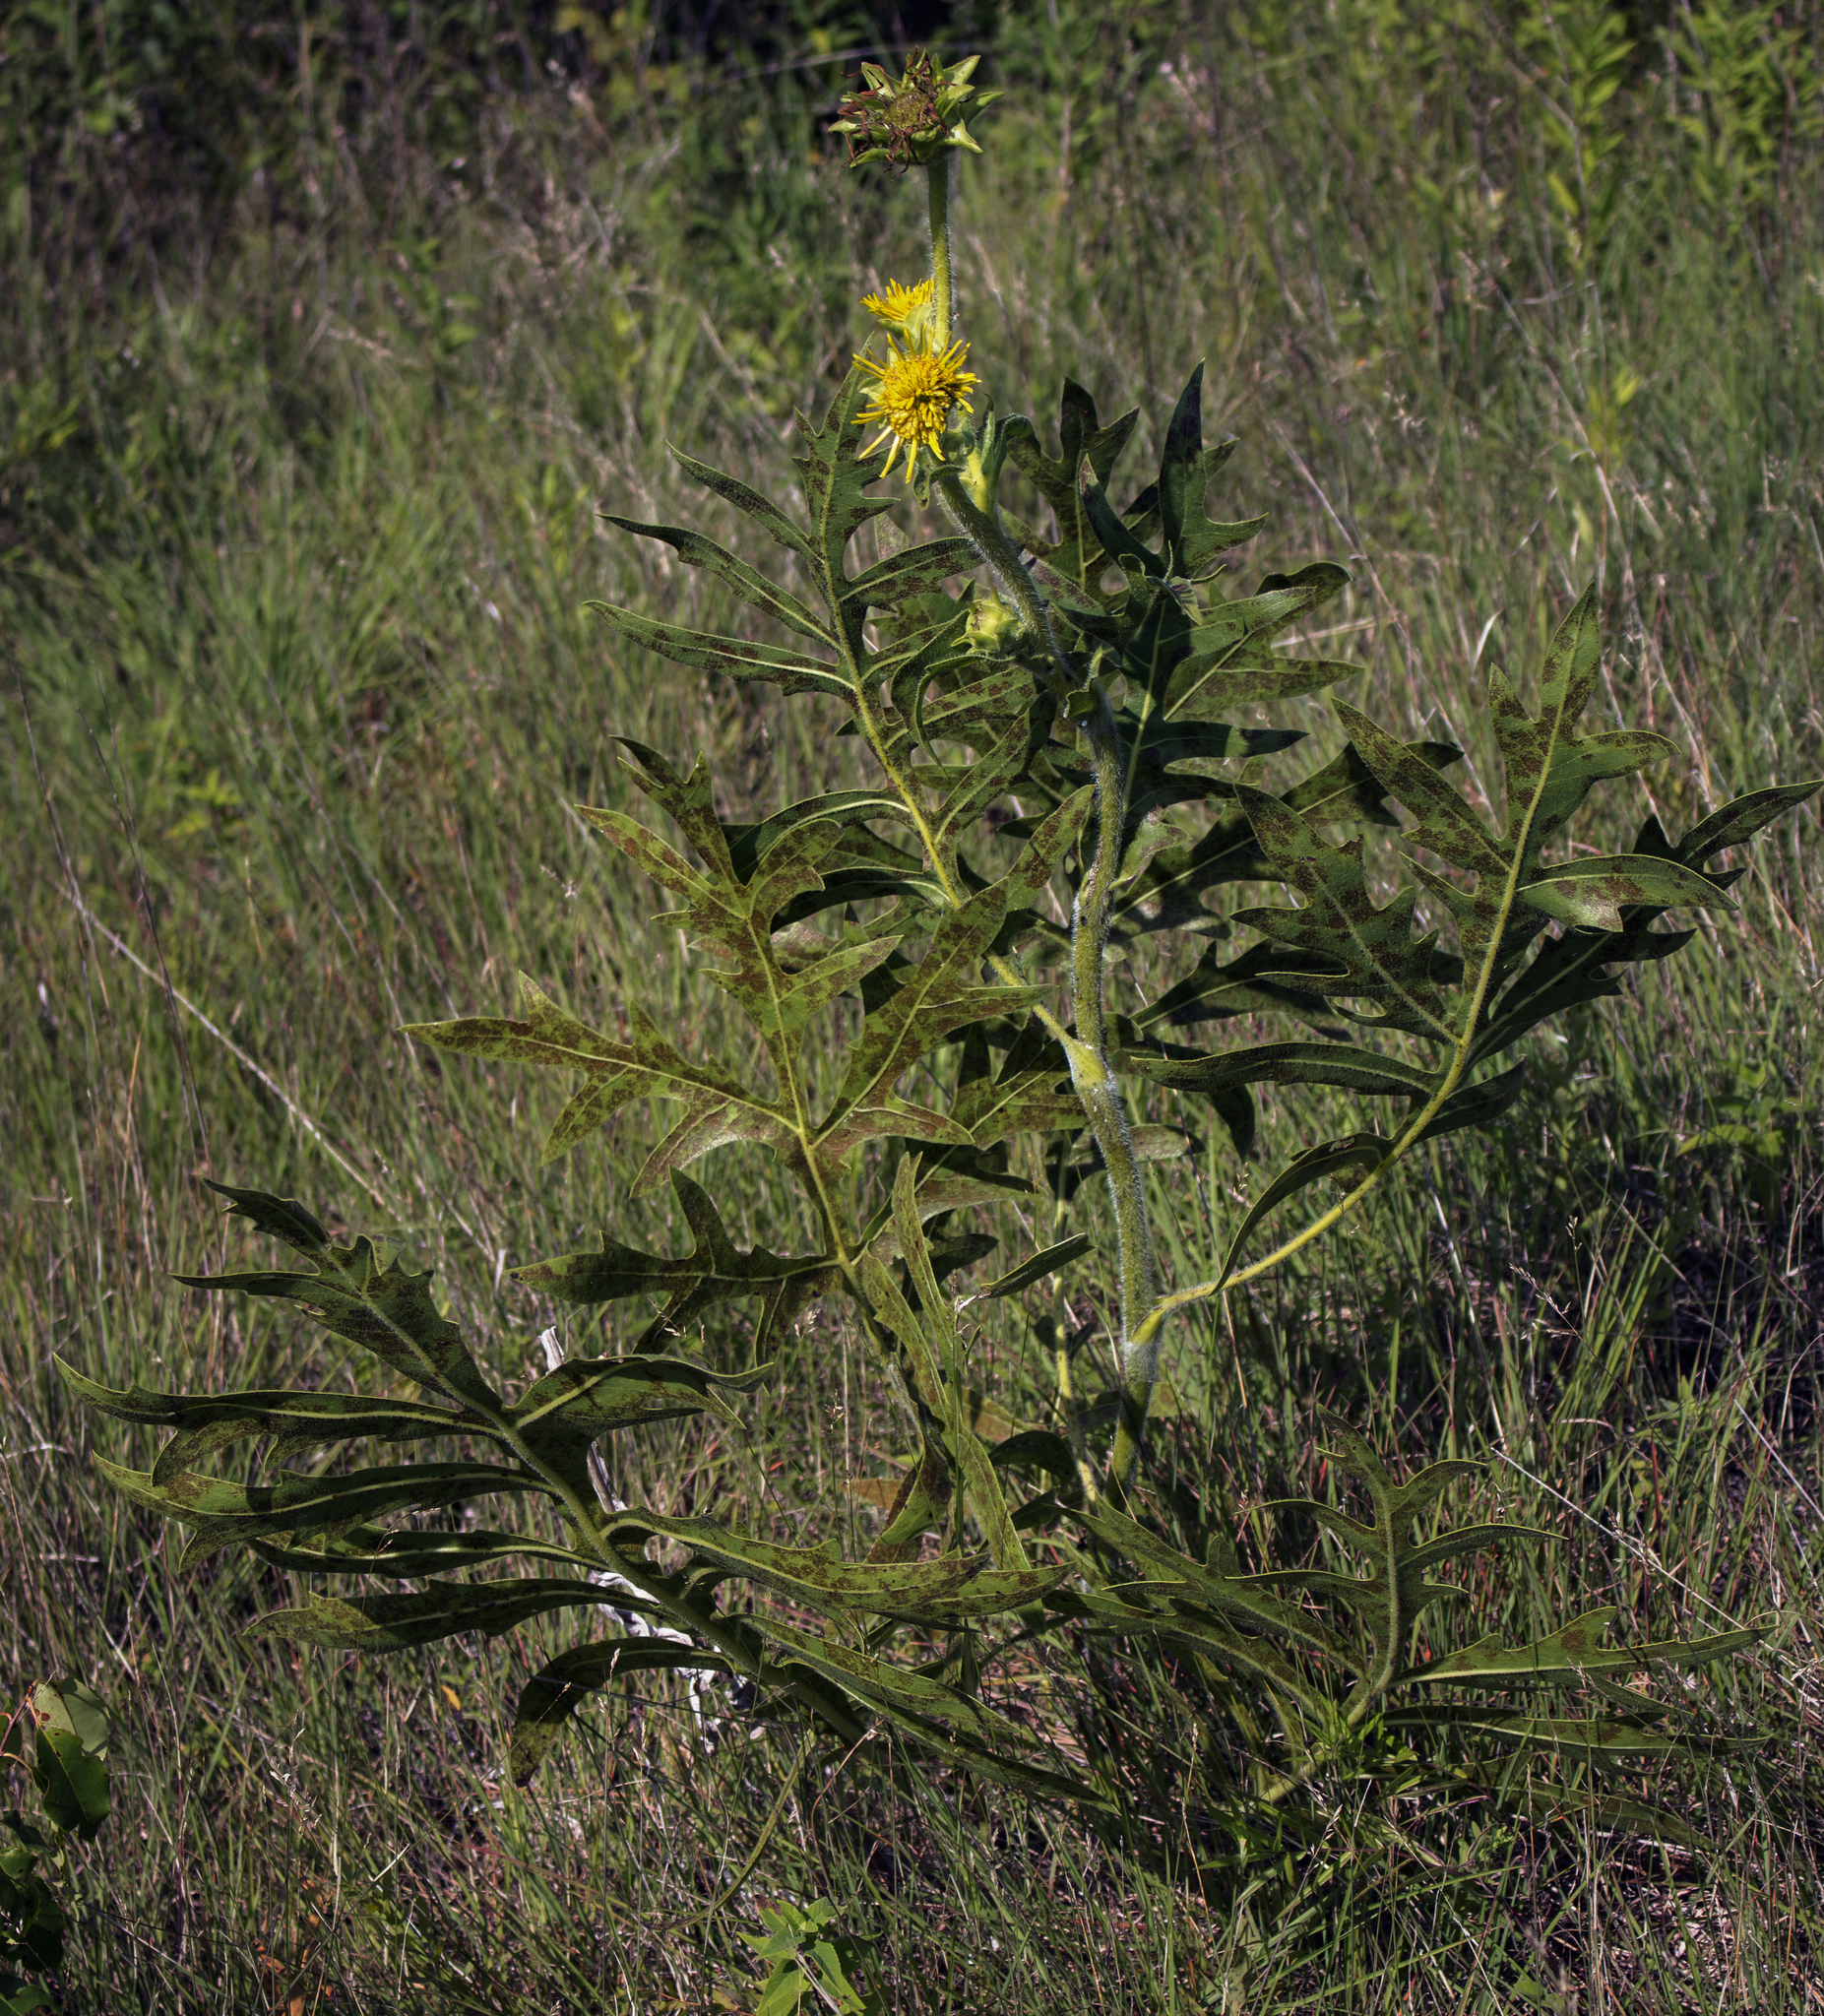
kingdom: Plantae
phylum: Tracheophyta
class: Magnoliopsida
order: Asterales
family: Asteraceae
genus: Silphium
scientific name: Silphium laciniatum
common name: Polarplant
